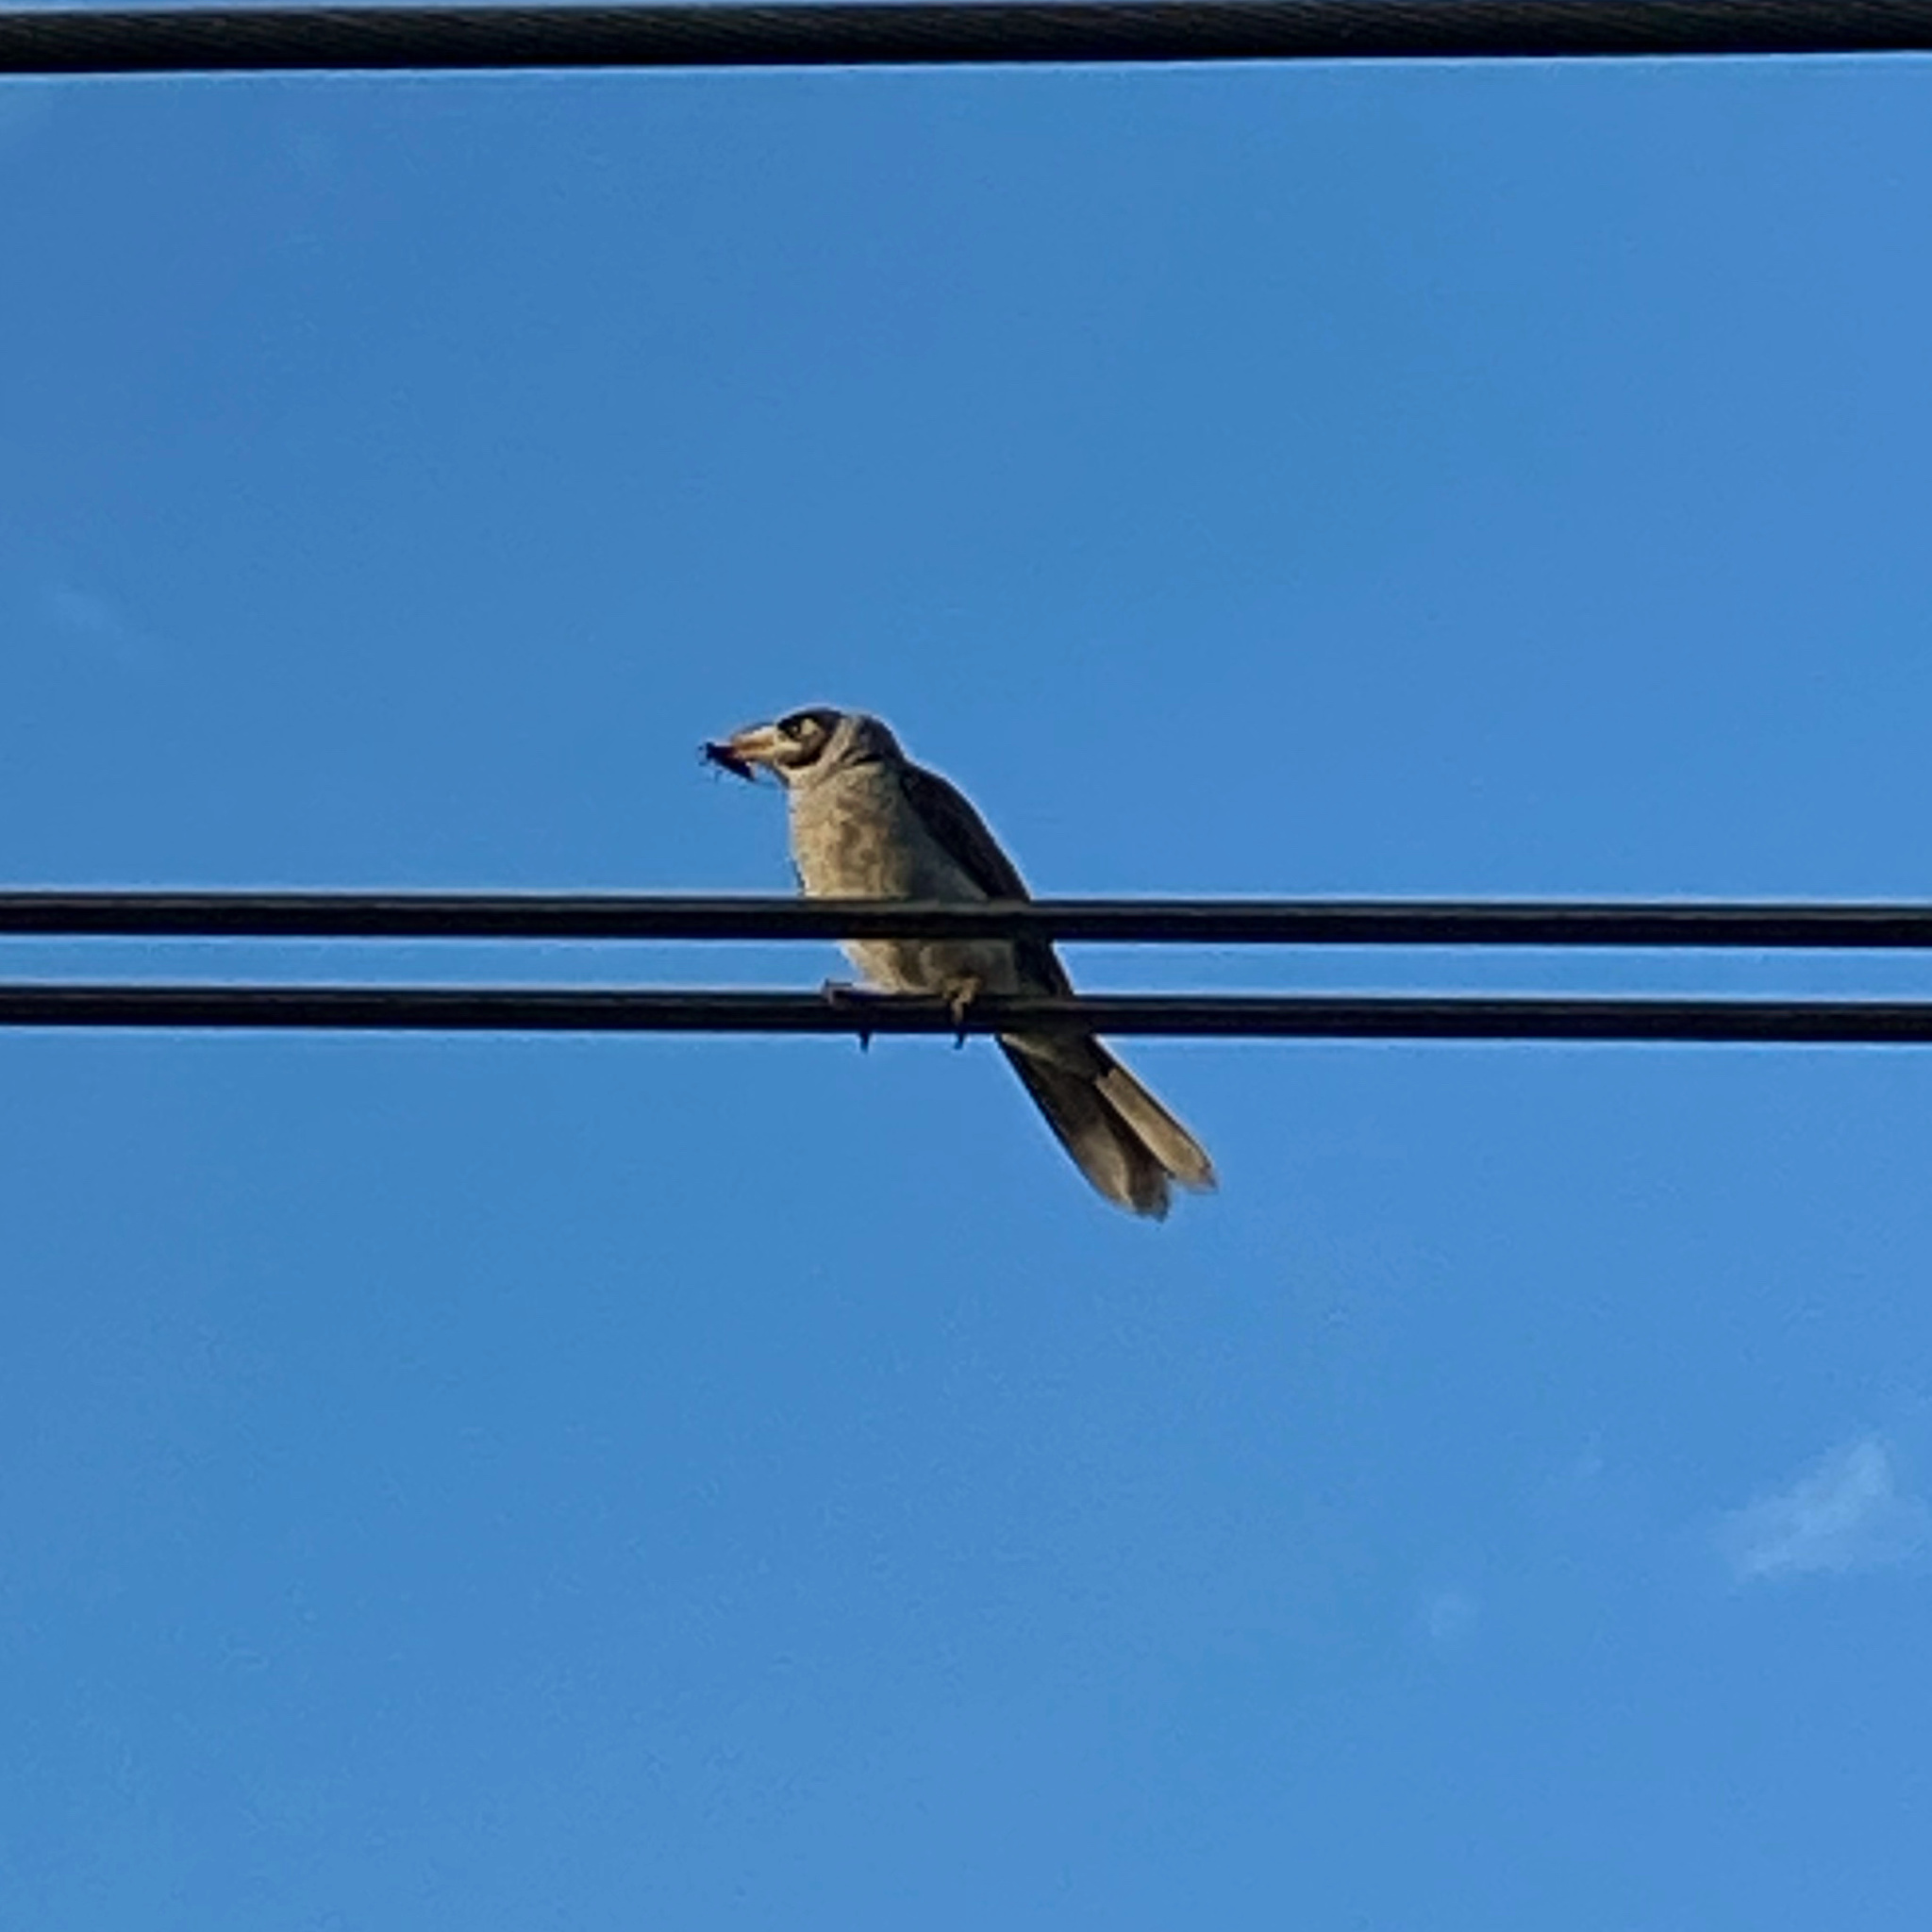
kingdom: Animalia
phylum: Chordata
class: Aves
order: Passeriformes
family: Meliphagidae
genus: Manorina
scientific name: Manorina melanocephala
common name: Noisy miner
